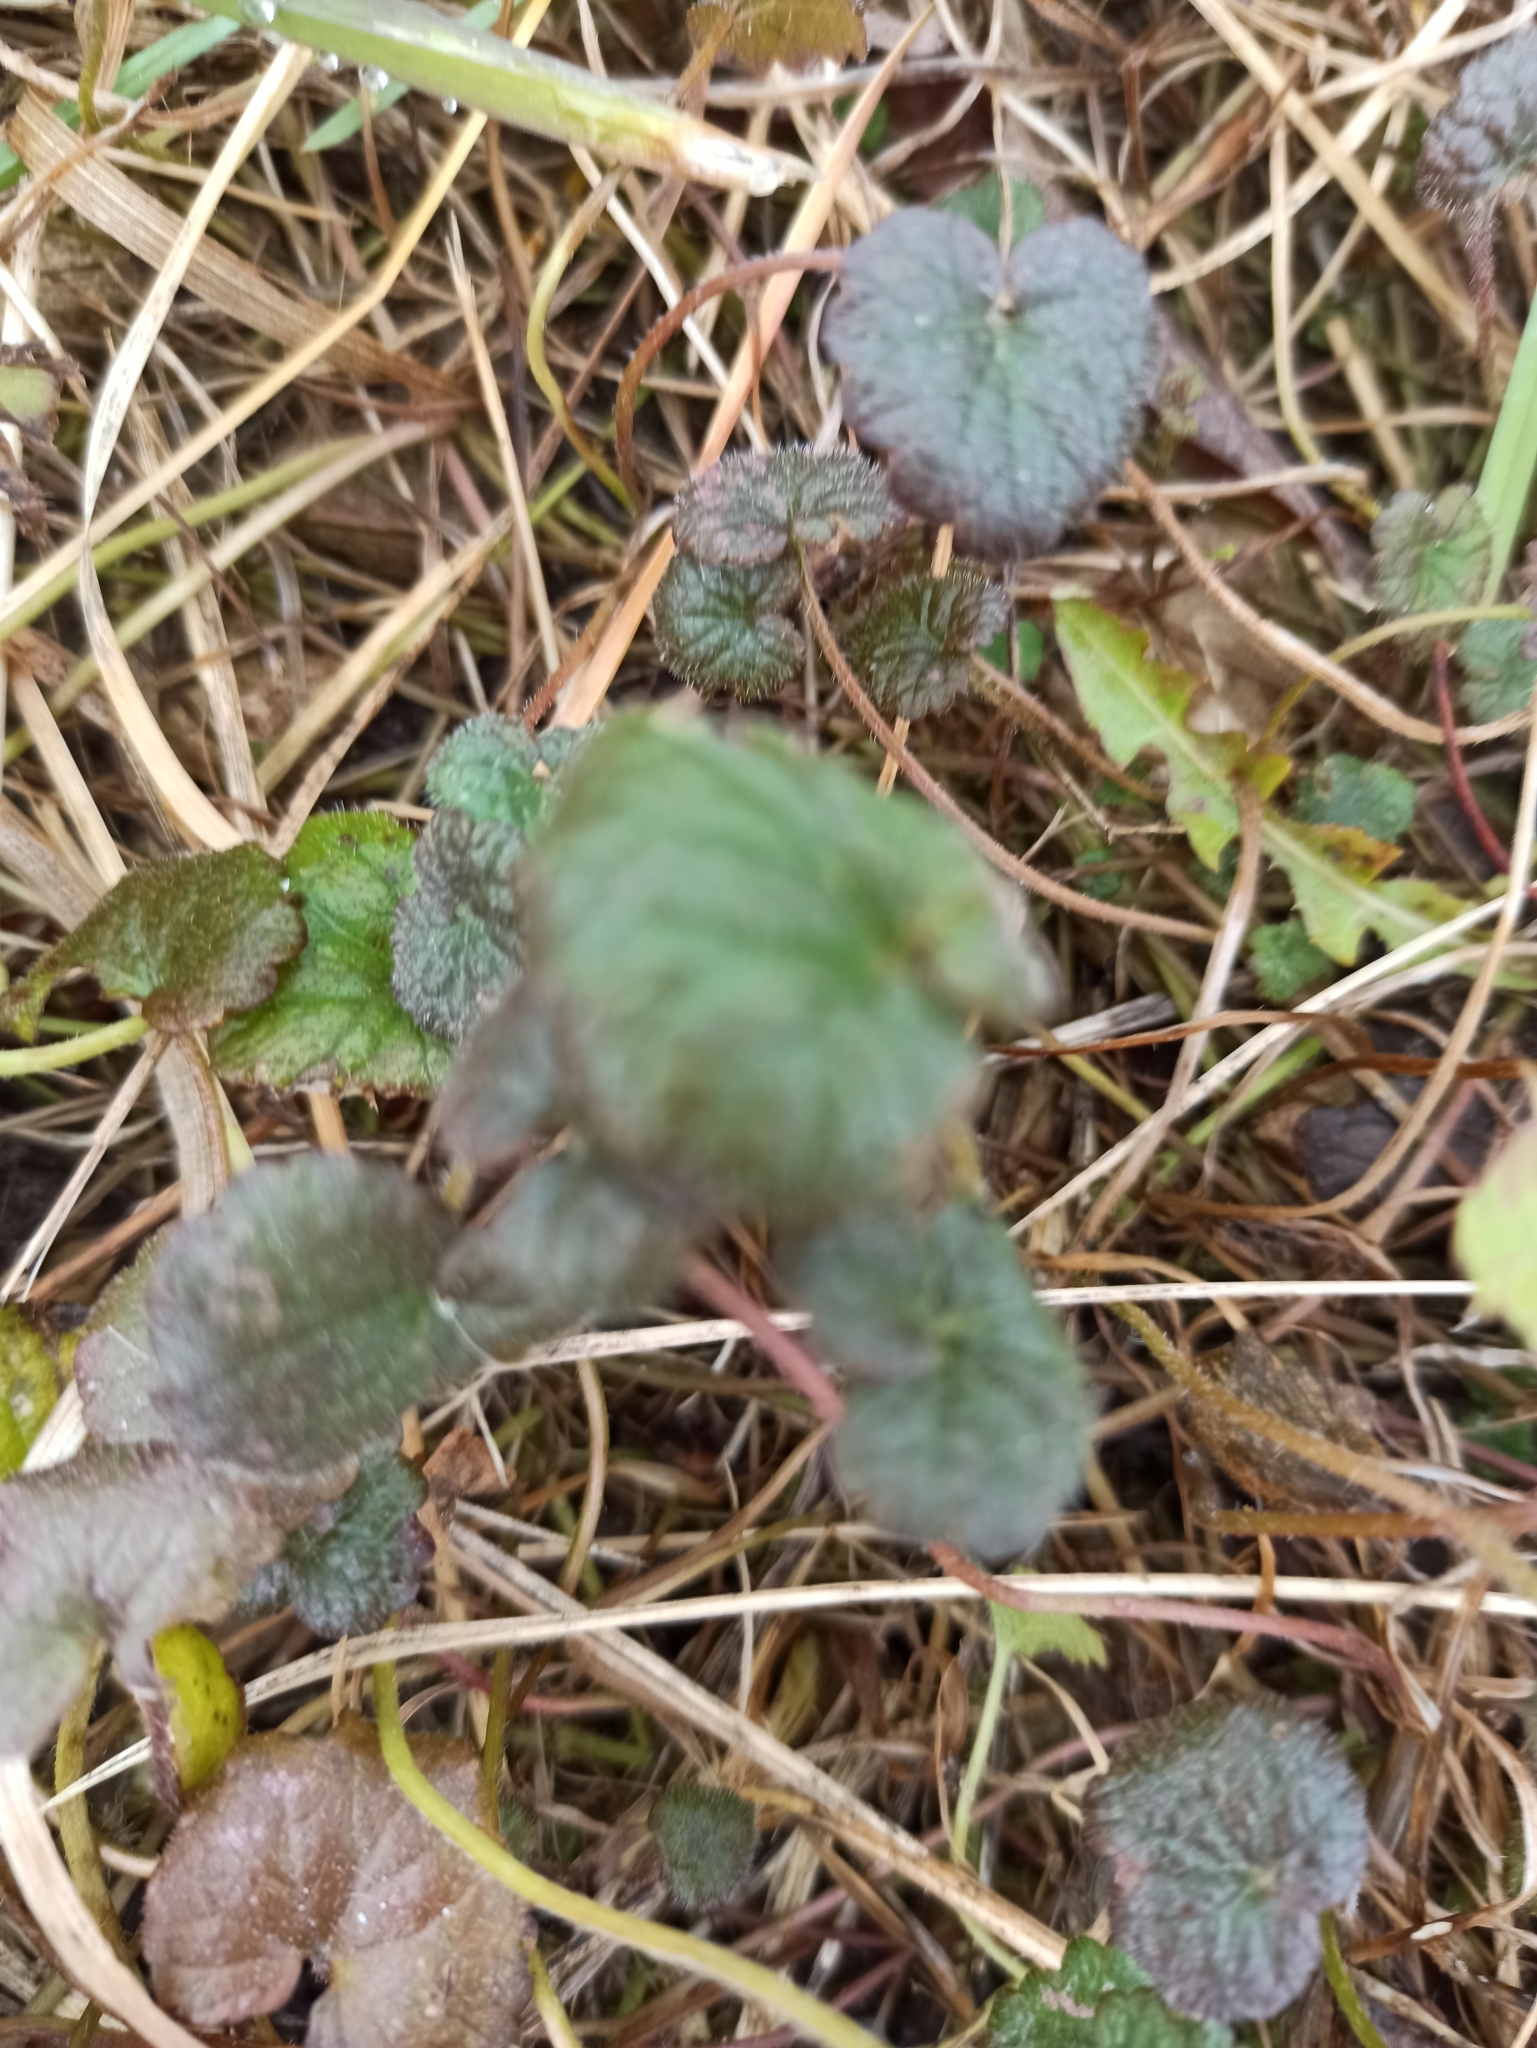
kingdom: Plantae
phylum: Tracheophyta
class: Magnoliopsida
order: Lamiales
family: Lamiaceae
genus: Glechoma
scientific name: Glechoma hederacea
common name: Ground ivy
